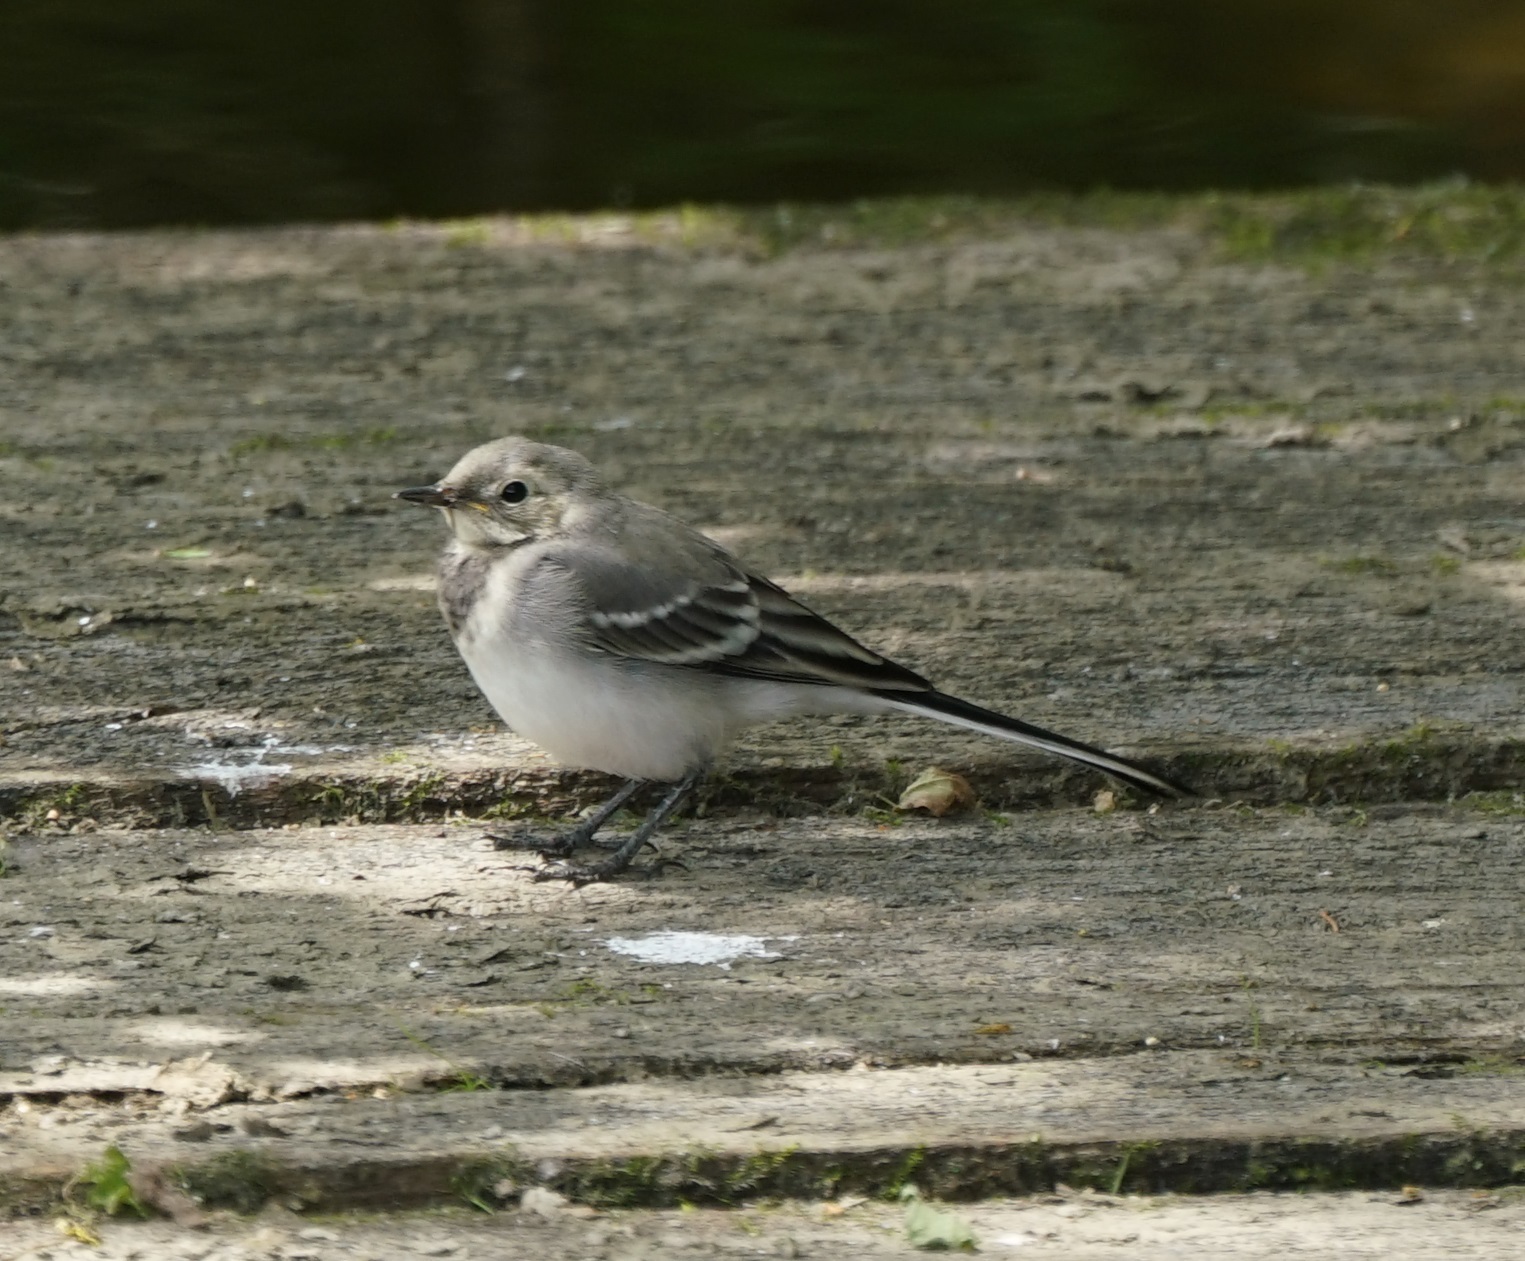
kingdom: Animalia
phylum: Chordata
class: Aves
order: Passeriformes
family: Motacillidae
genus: Motacilla
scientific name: Motacilla alba
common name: White wagtail
